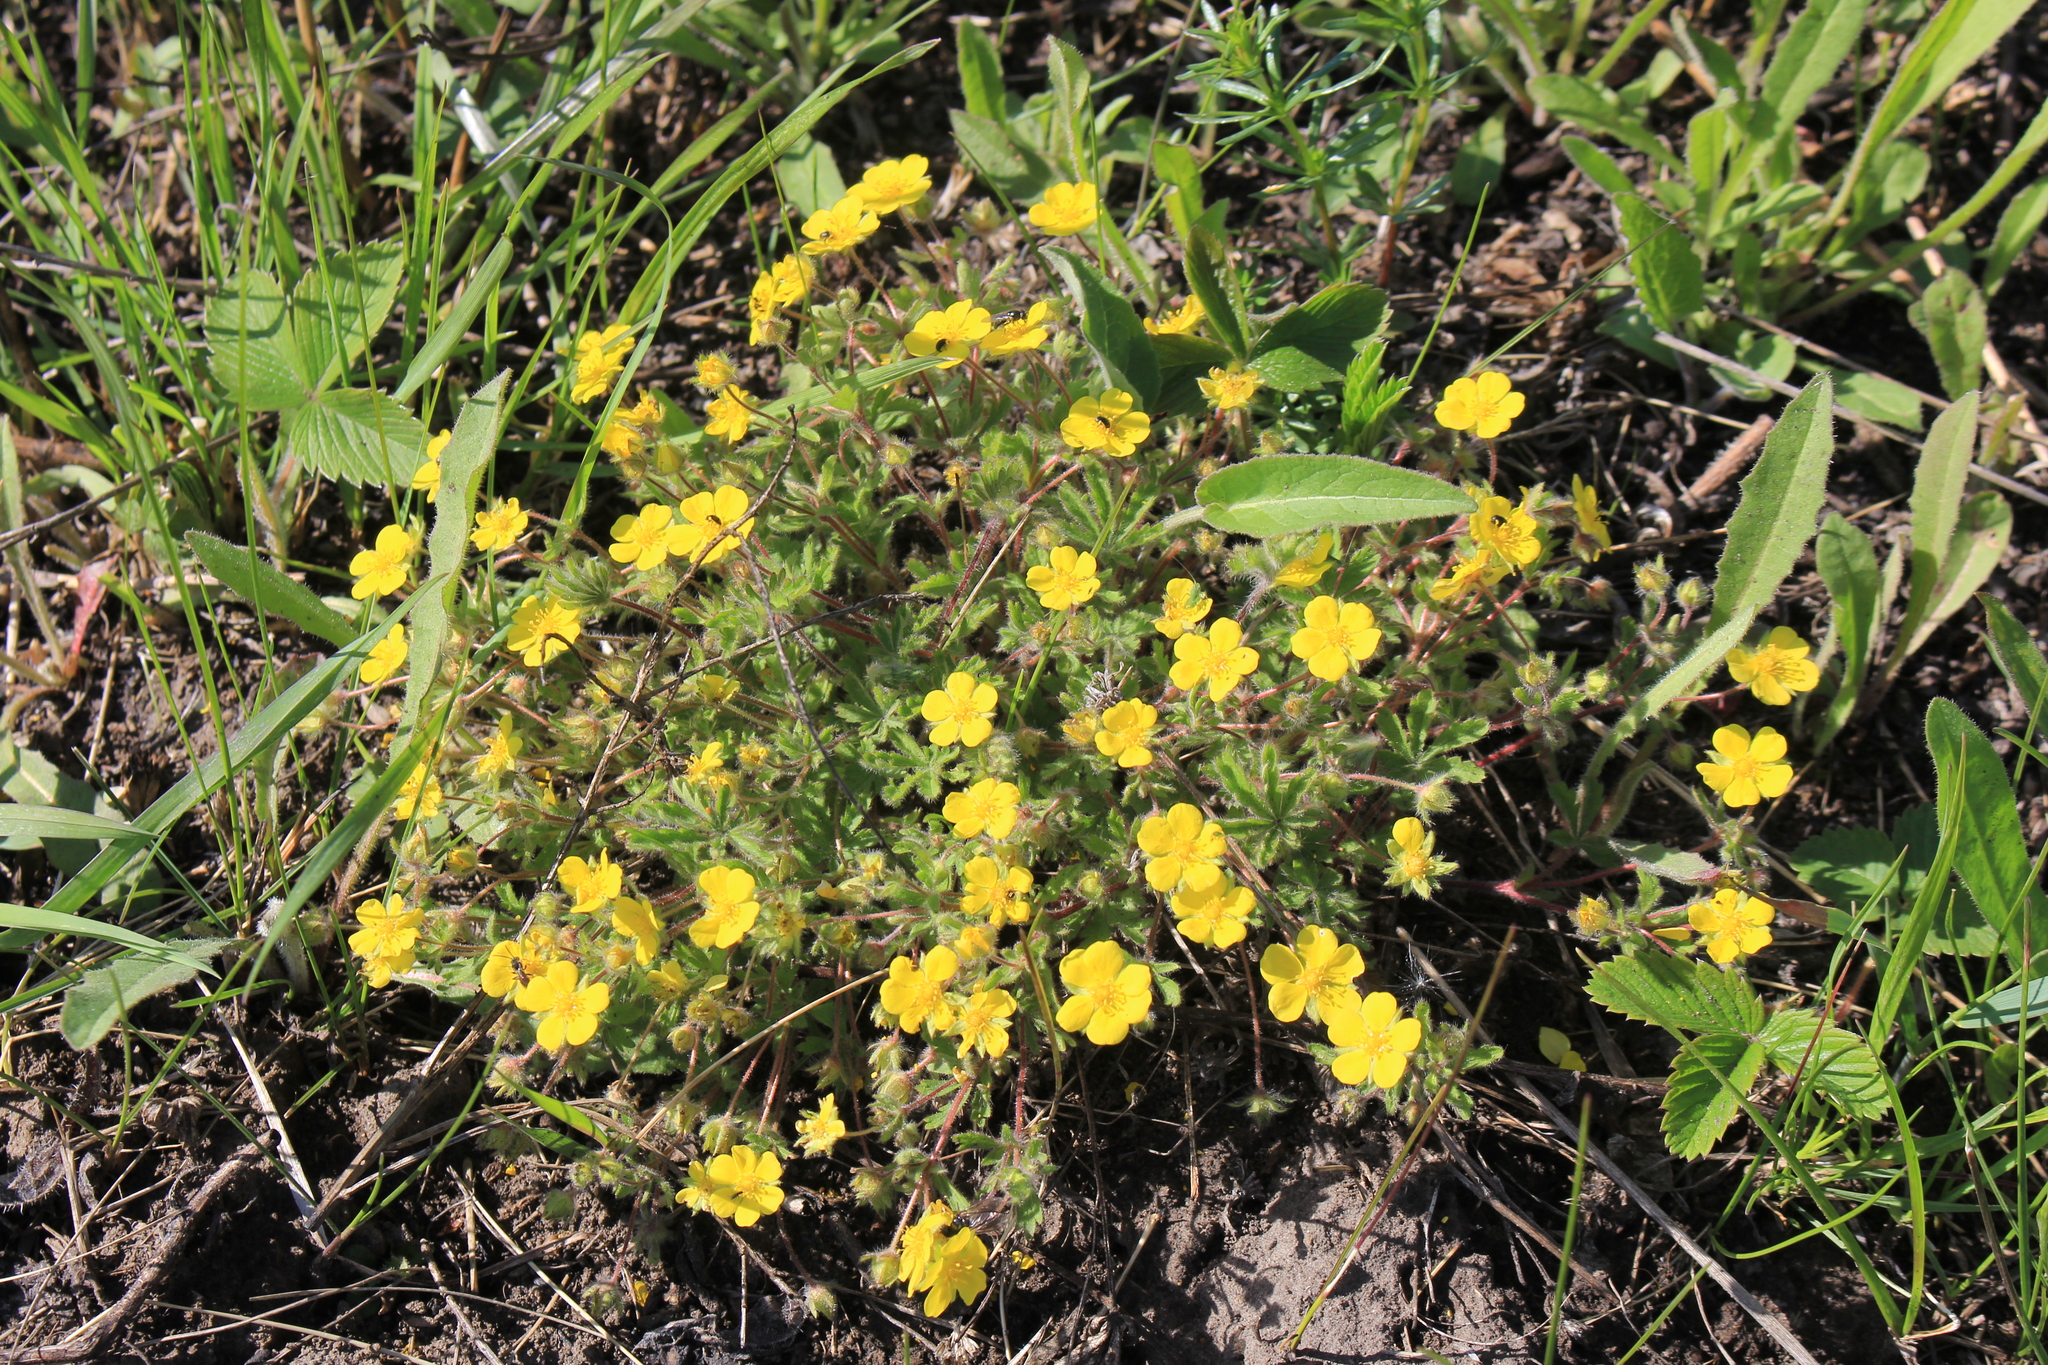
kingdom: Plantae
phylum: Tracheophyta
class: Magnoliopsida
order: Rosales
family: Rosaceae
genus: Potentilla
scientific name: Potentilla humifusa
